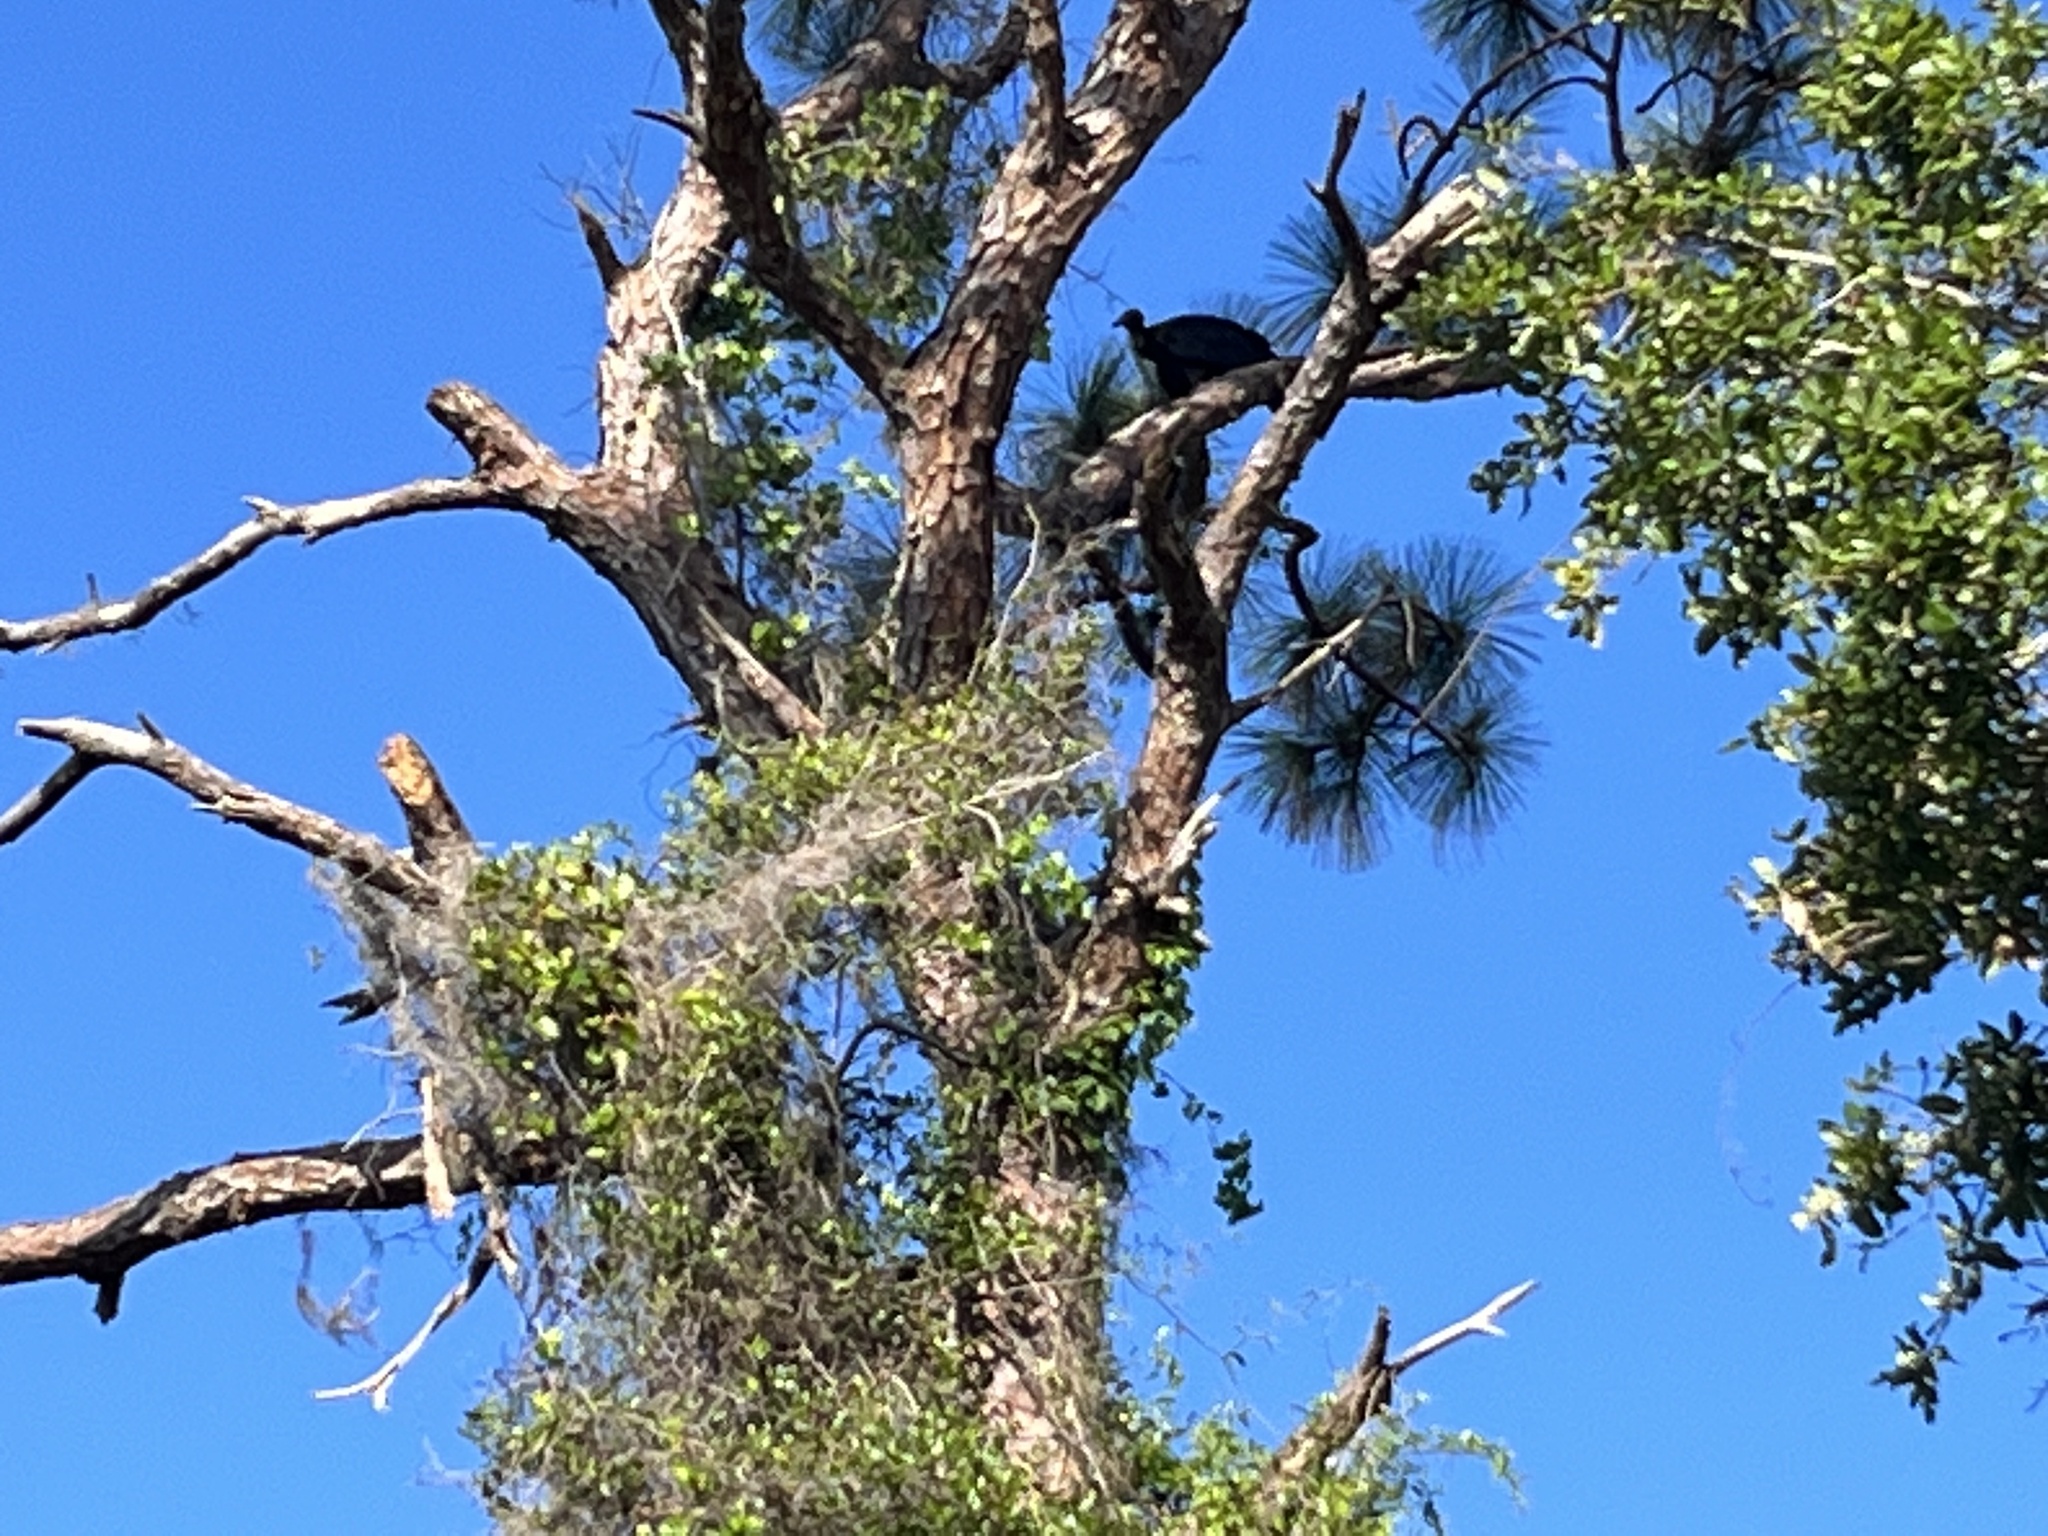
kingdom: Animalia
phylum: Chordata
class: Aves
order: Accipitriformes
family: Cathartidae
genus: Coragyps
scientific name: Coragyps atratus
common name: Black vulture
